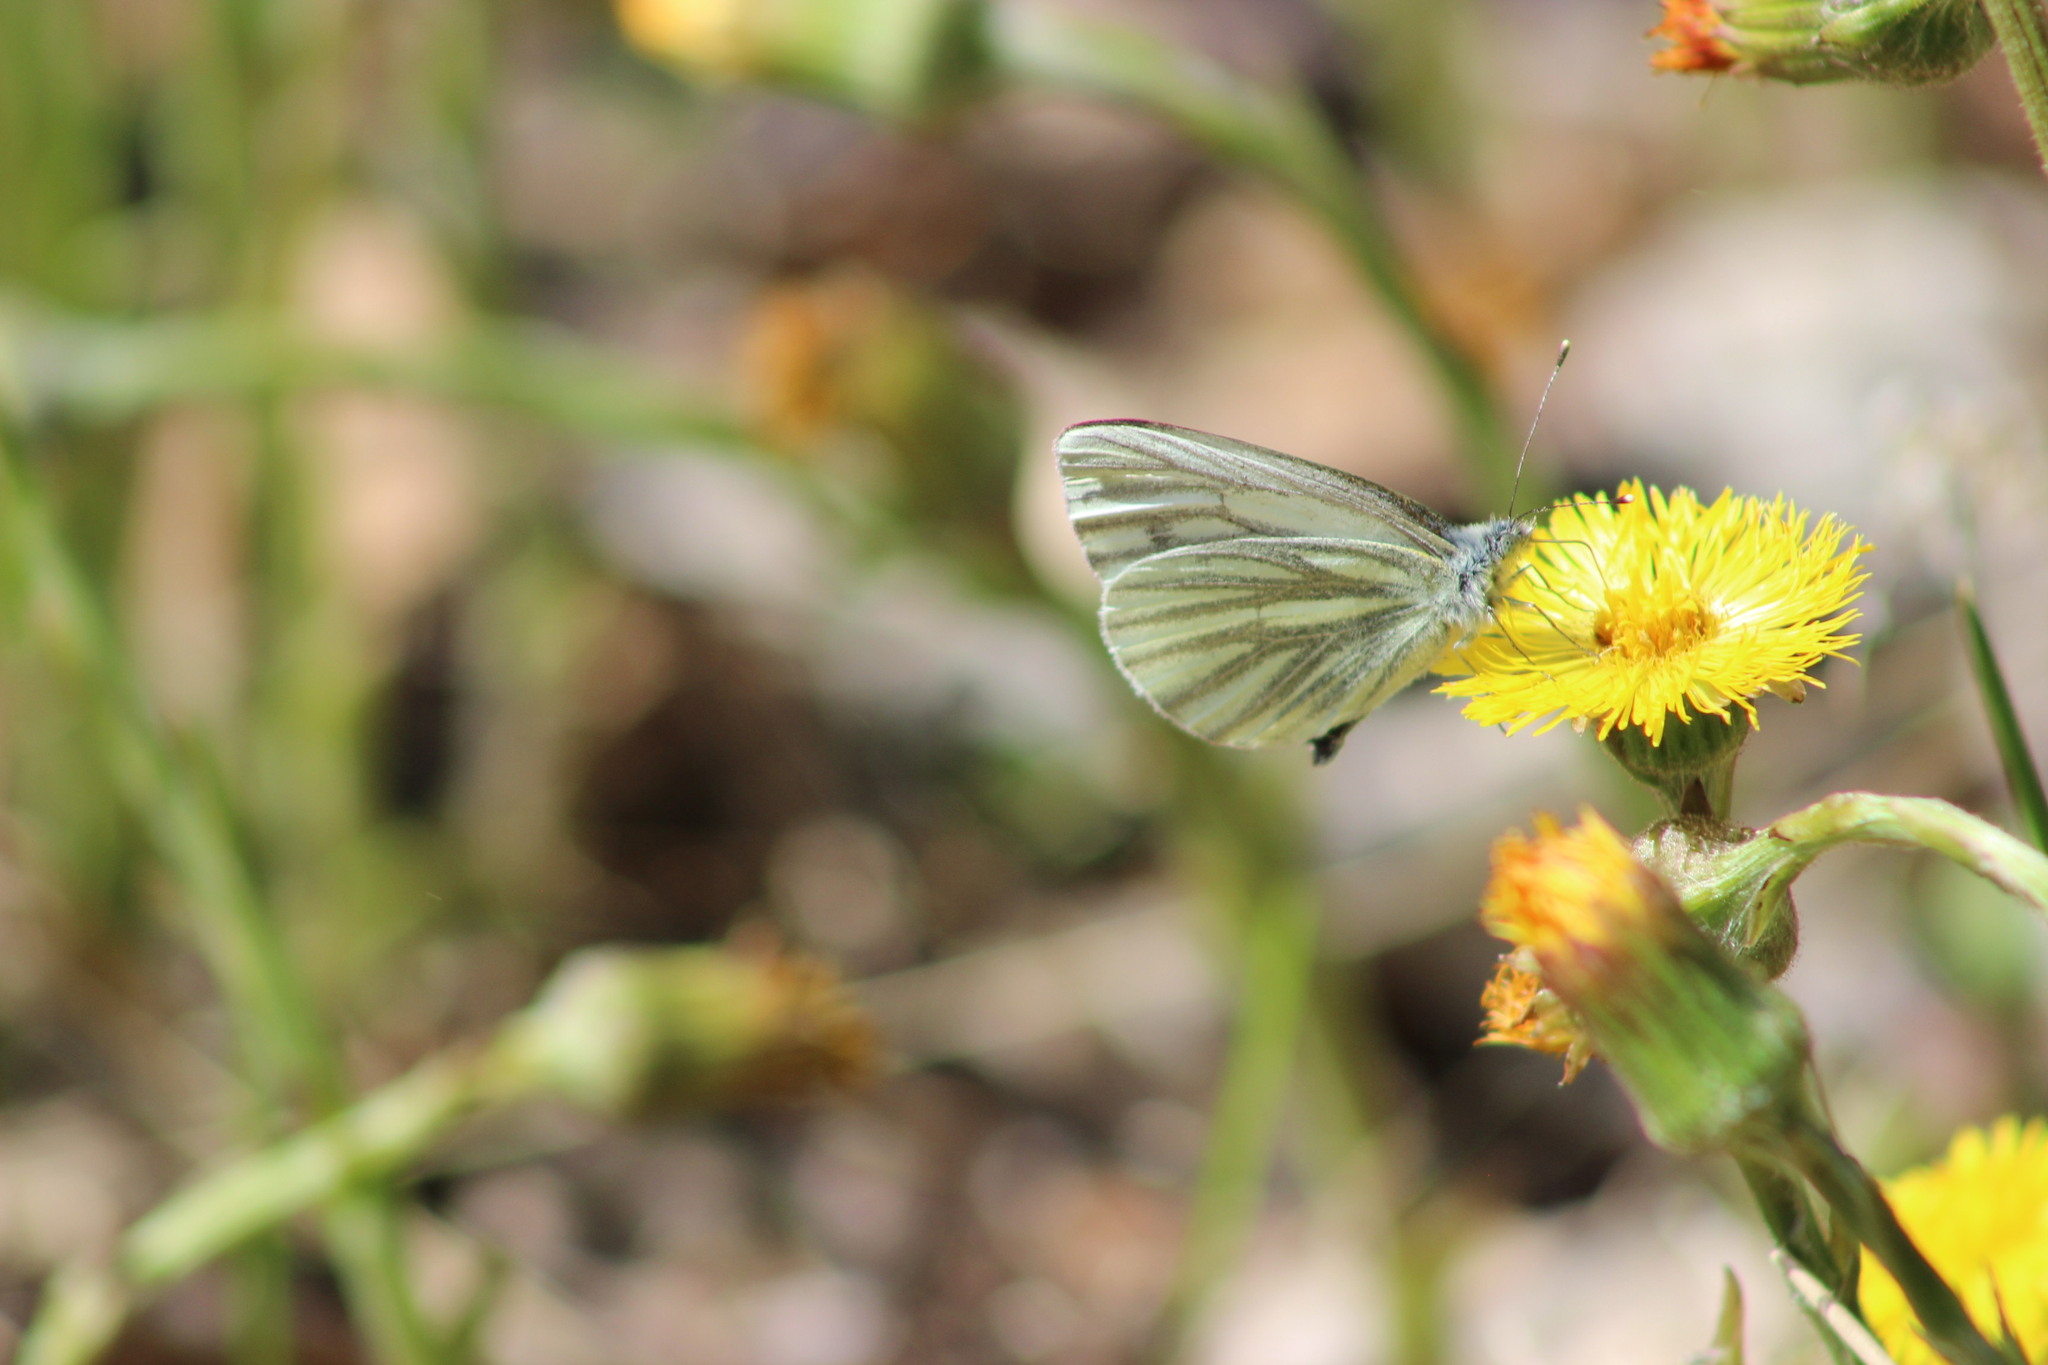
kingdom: Animalia
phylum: Arthropoda
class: Insecta
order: Lepidoptera
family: Pieridae
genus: Pieris
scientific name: Pieris napi
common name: Green-veined white
